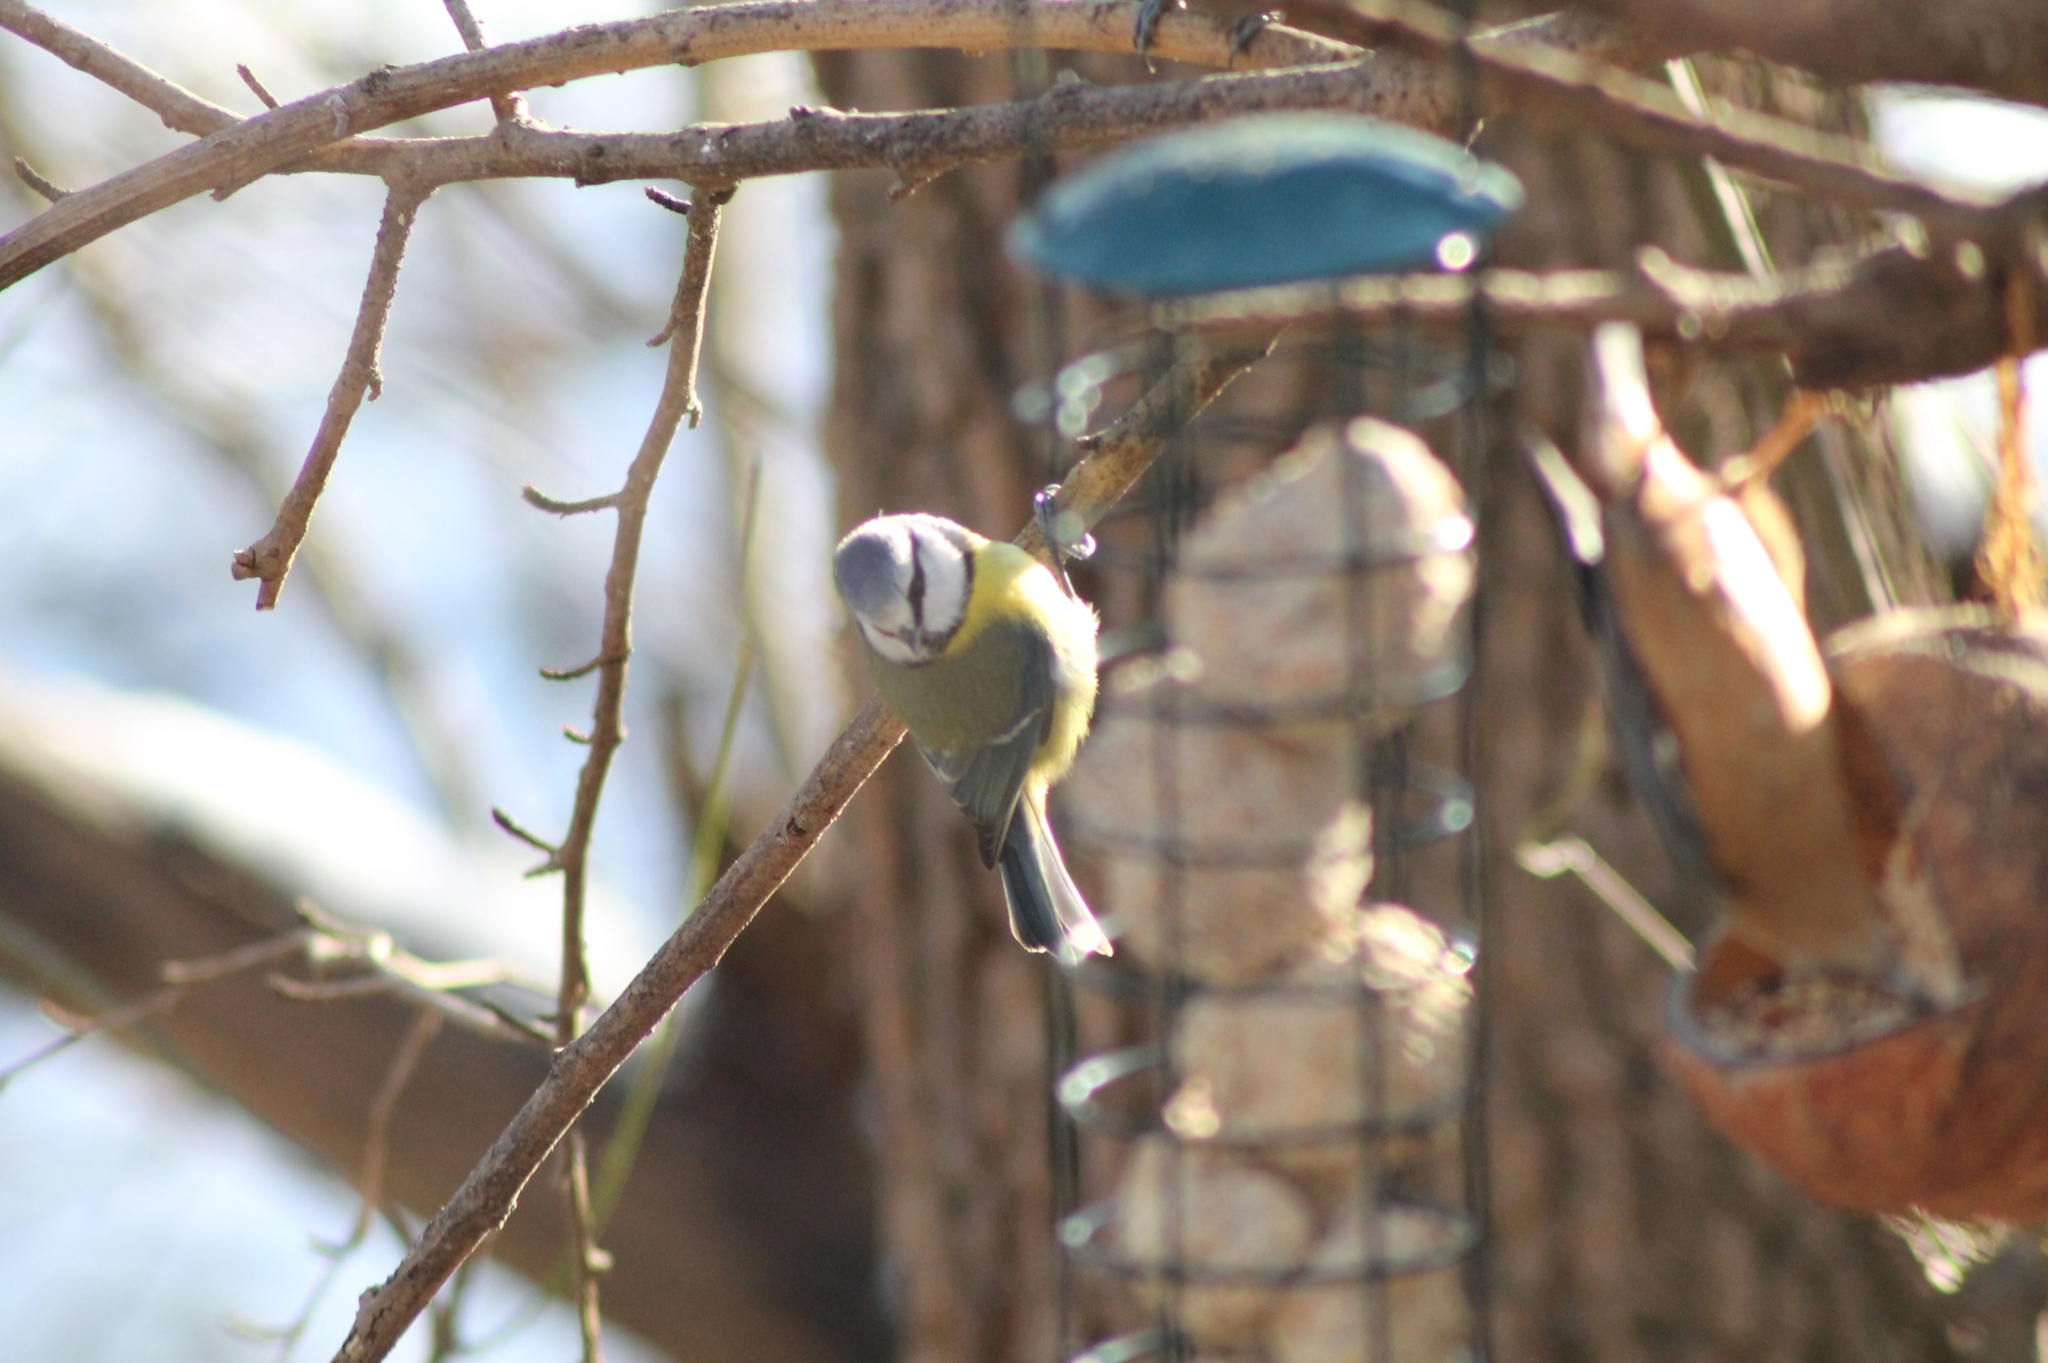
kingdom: Animalia
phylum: Chordata
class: Aves
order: Passeriformes
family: Paridae
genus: Cyanistes
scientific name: Cyanistes caeruleus
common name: Eurasian blue tit
